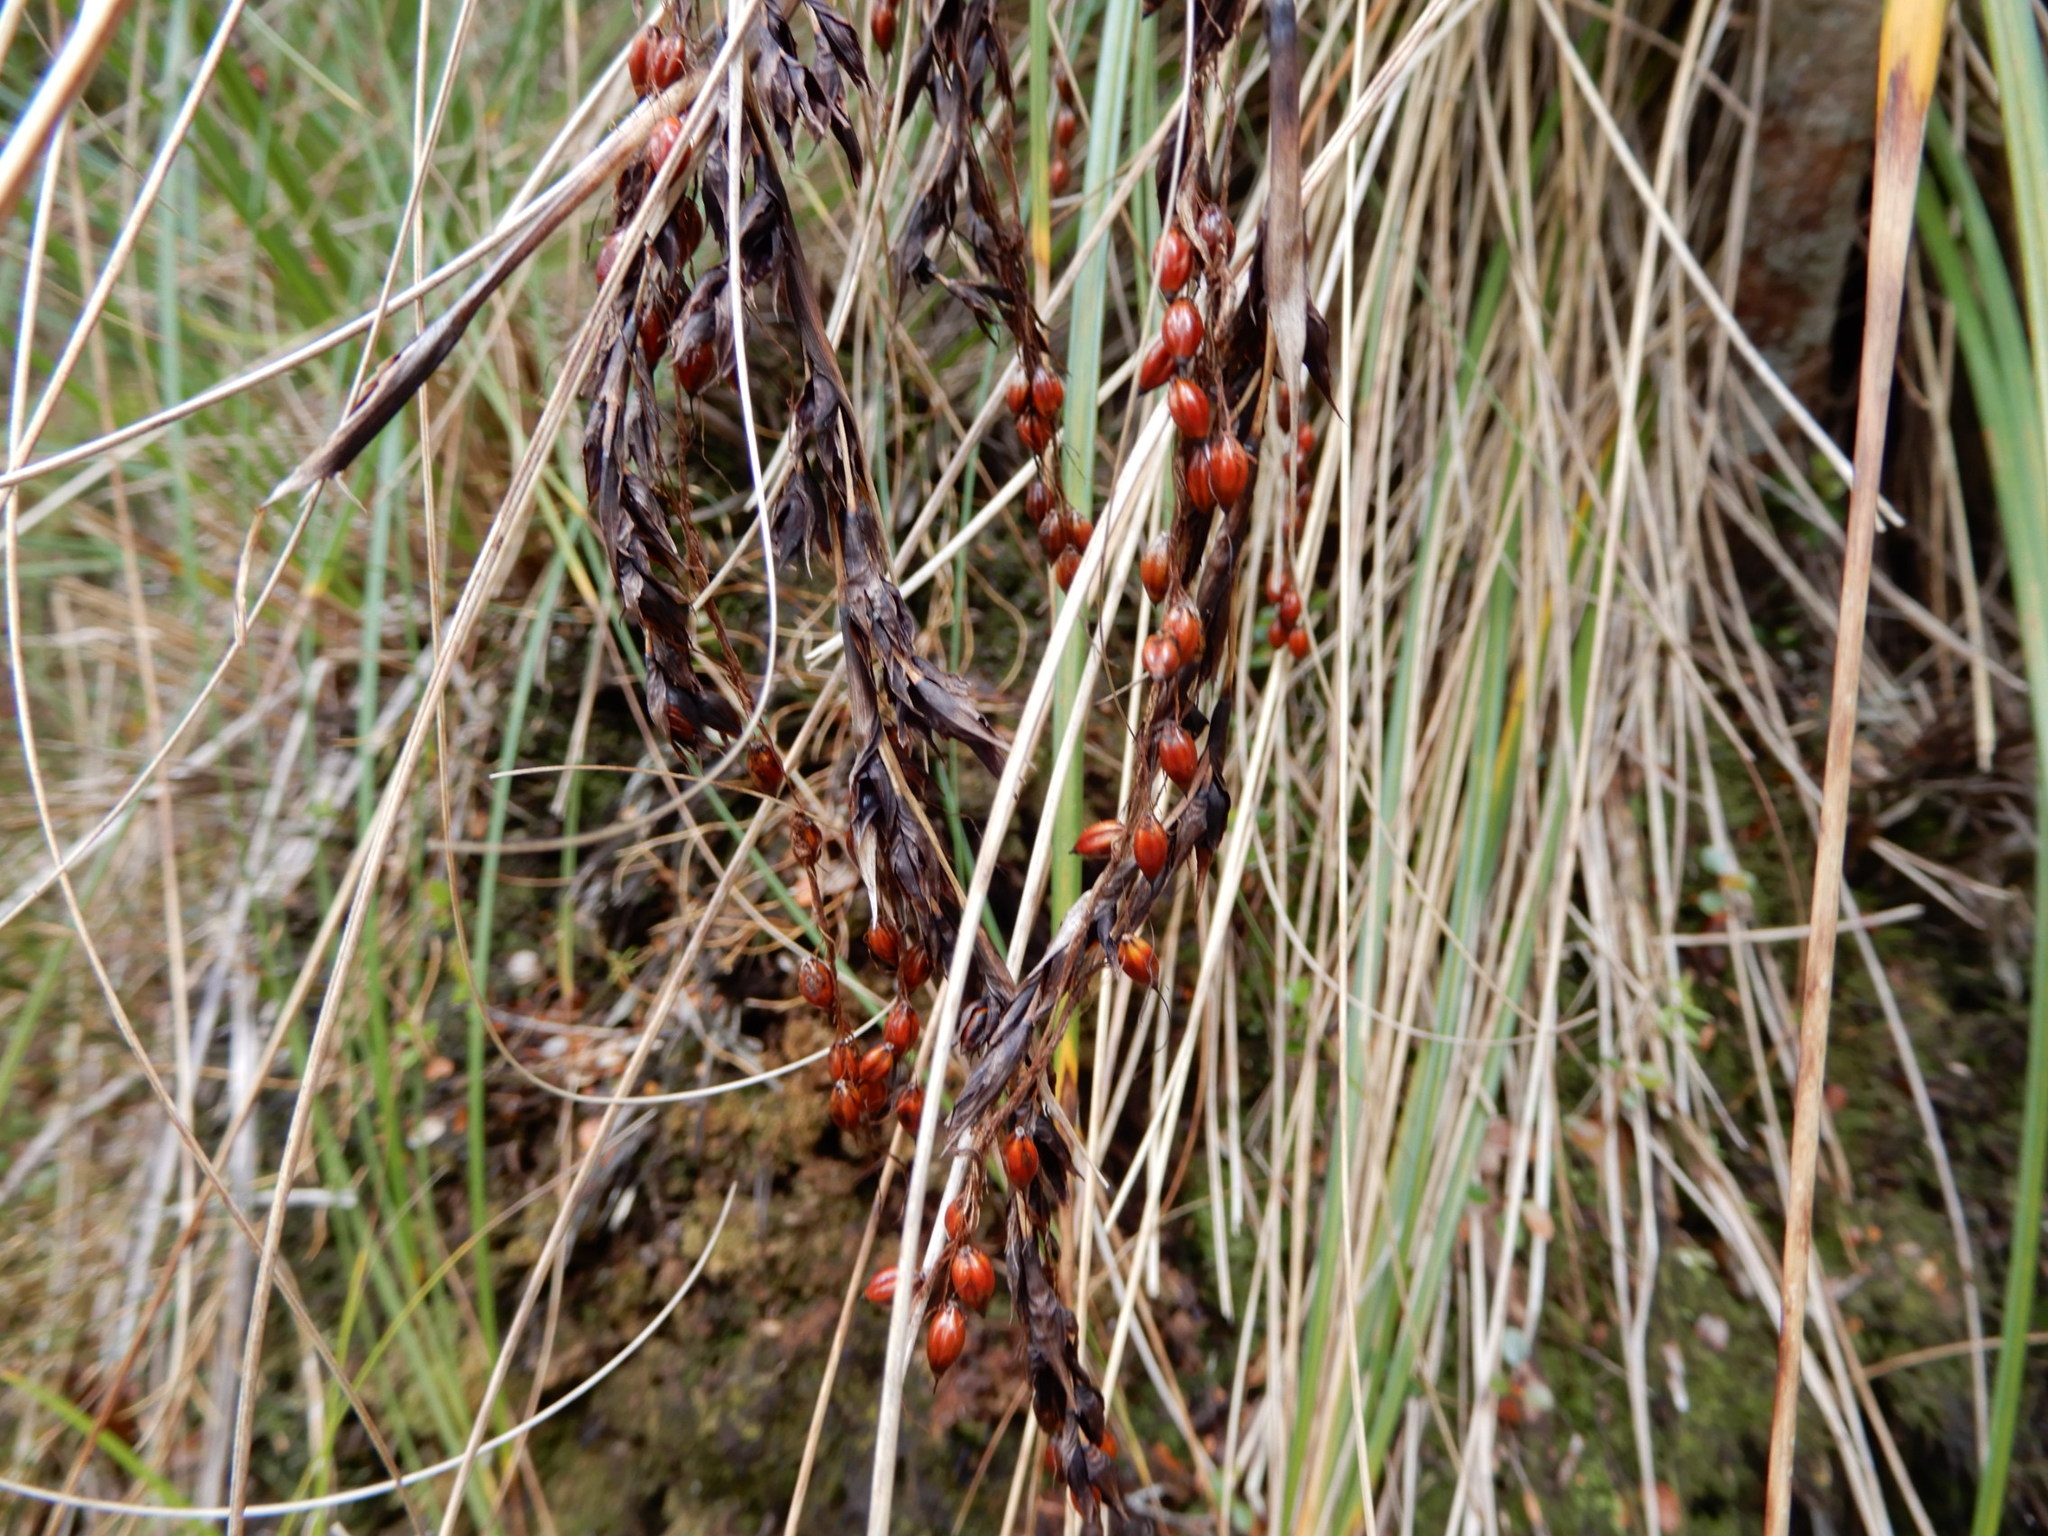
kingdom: Plantae
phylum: Tracheophyta
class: Liliopsida
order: Poales
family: Cyperaceae
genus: Gahnia
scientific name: Gahnia procera
